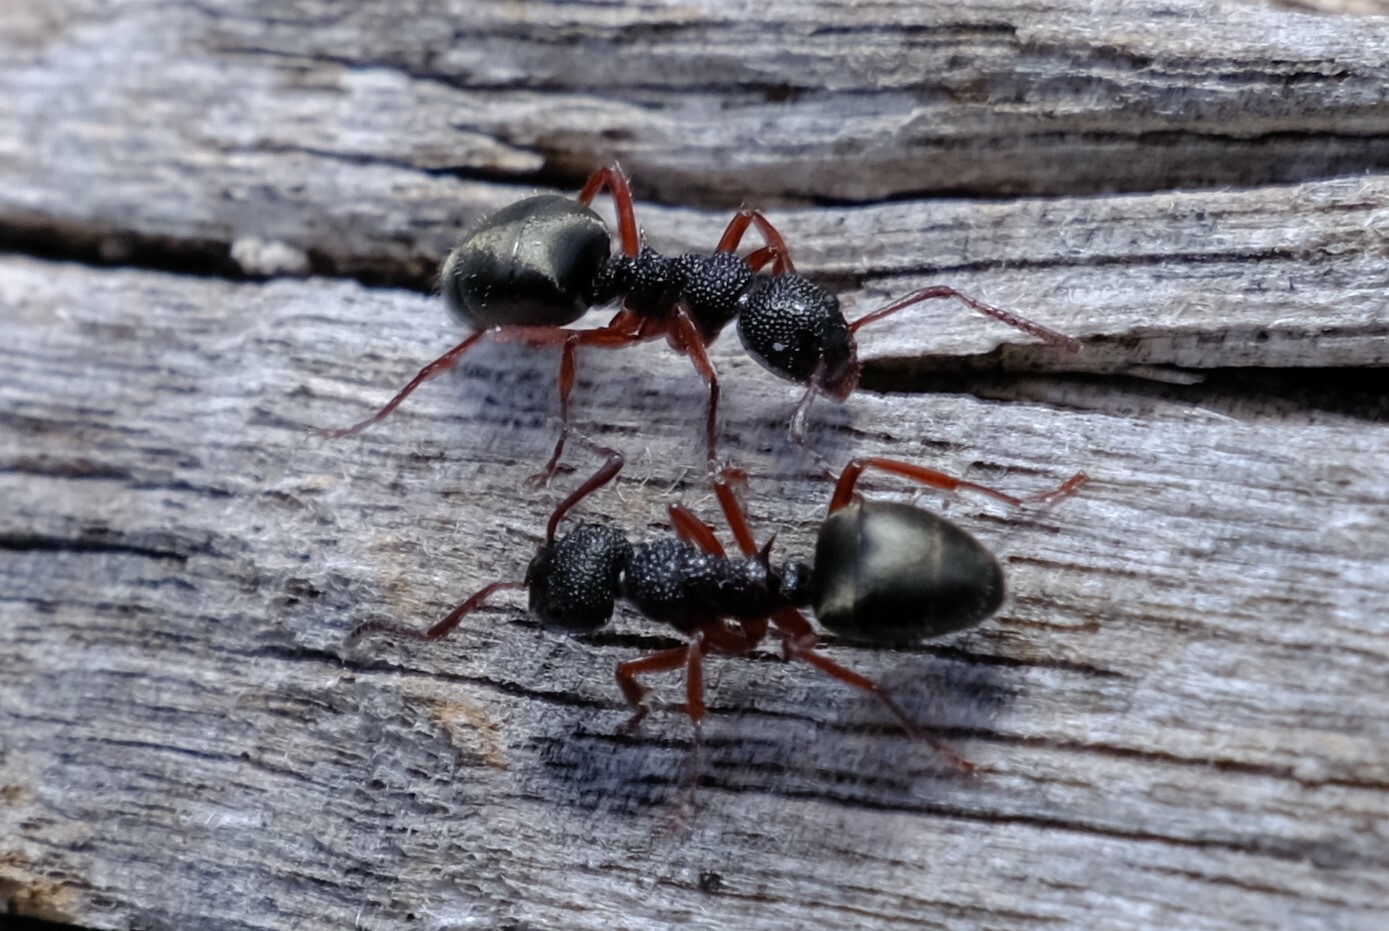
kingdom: Animalia
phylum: Arthropoda
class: Insecta
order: Hymenoptera
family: Formicidae
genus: Dolichoderus
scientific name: Dolichoderus scabridus
